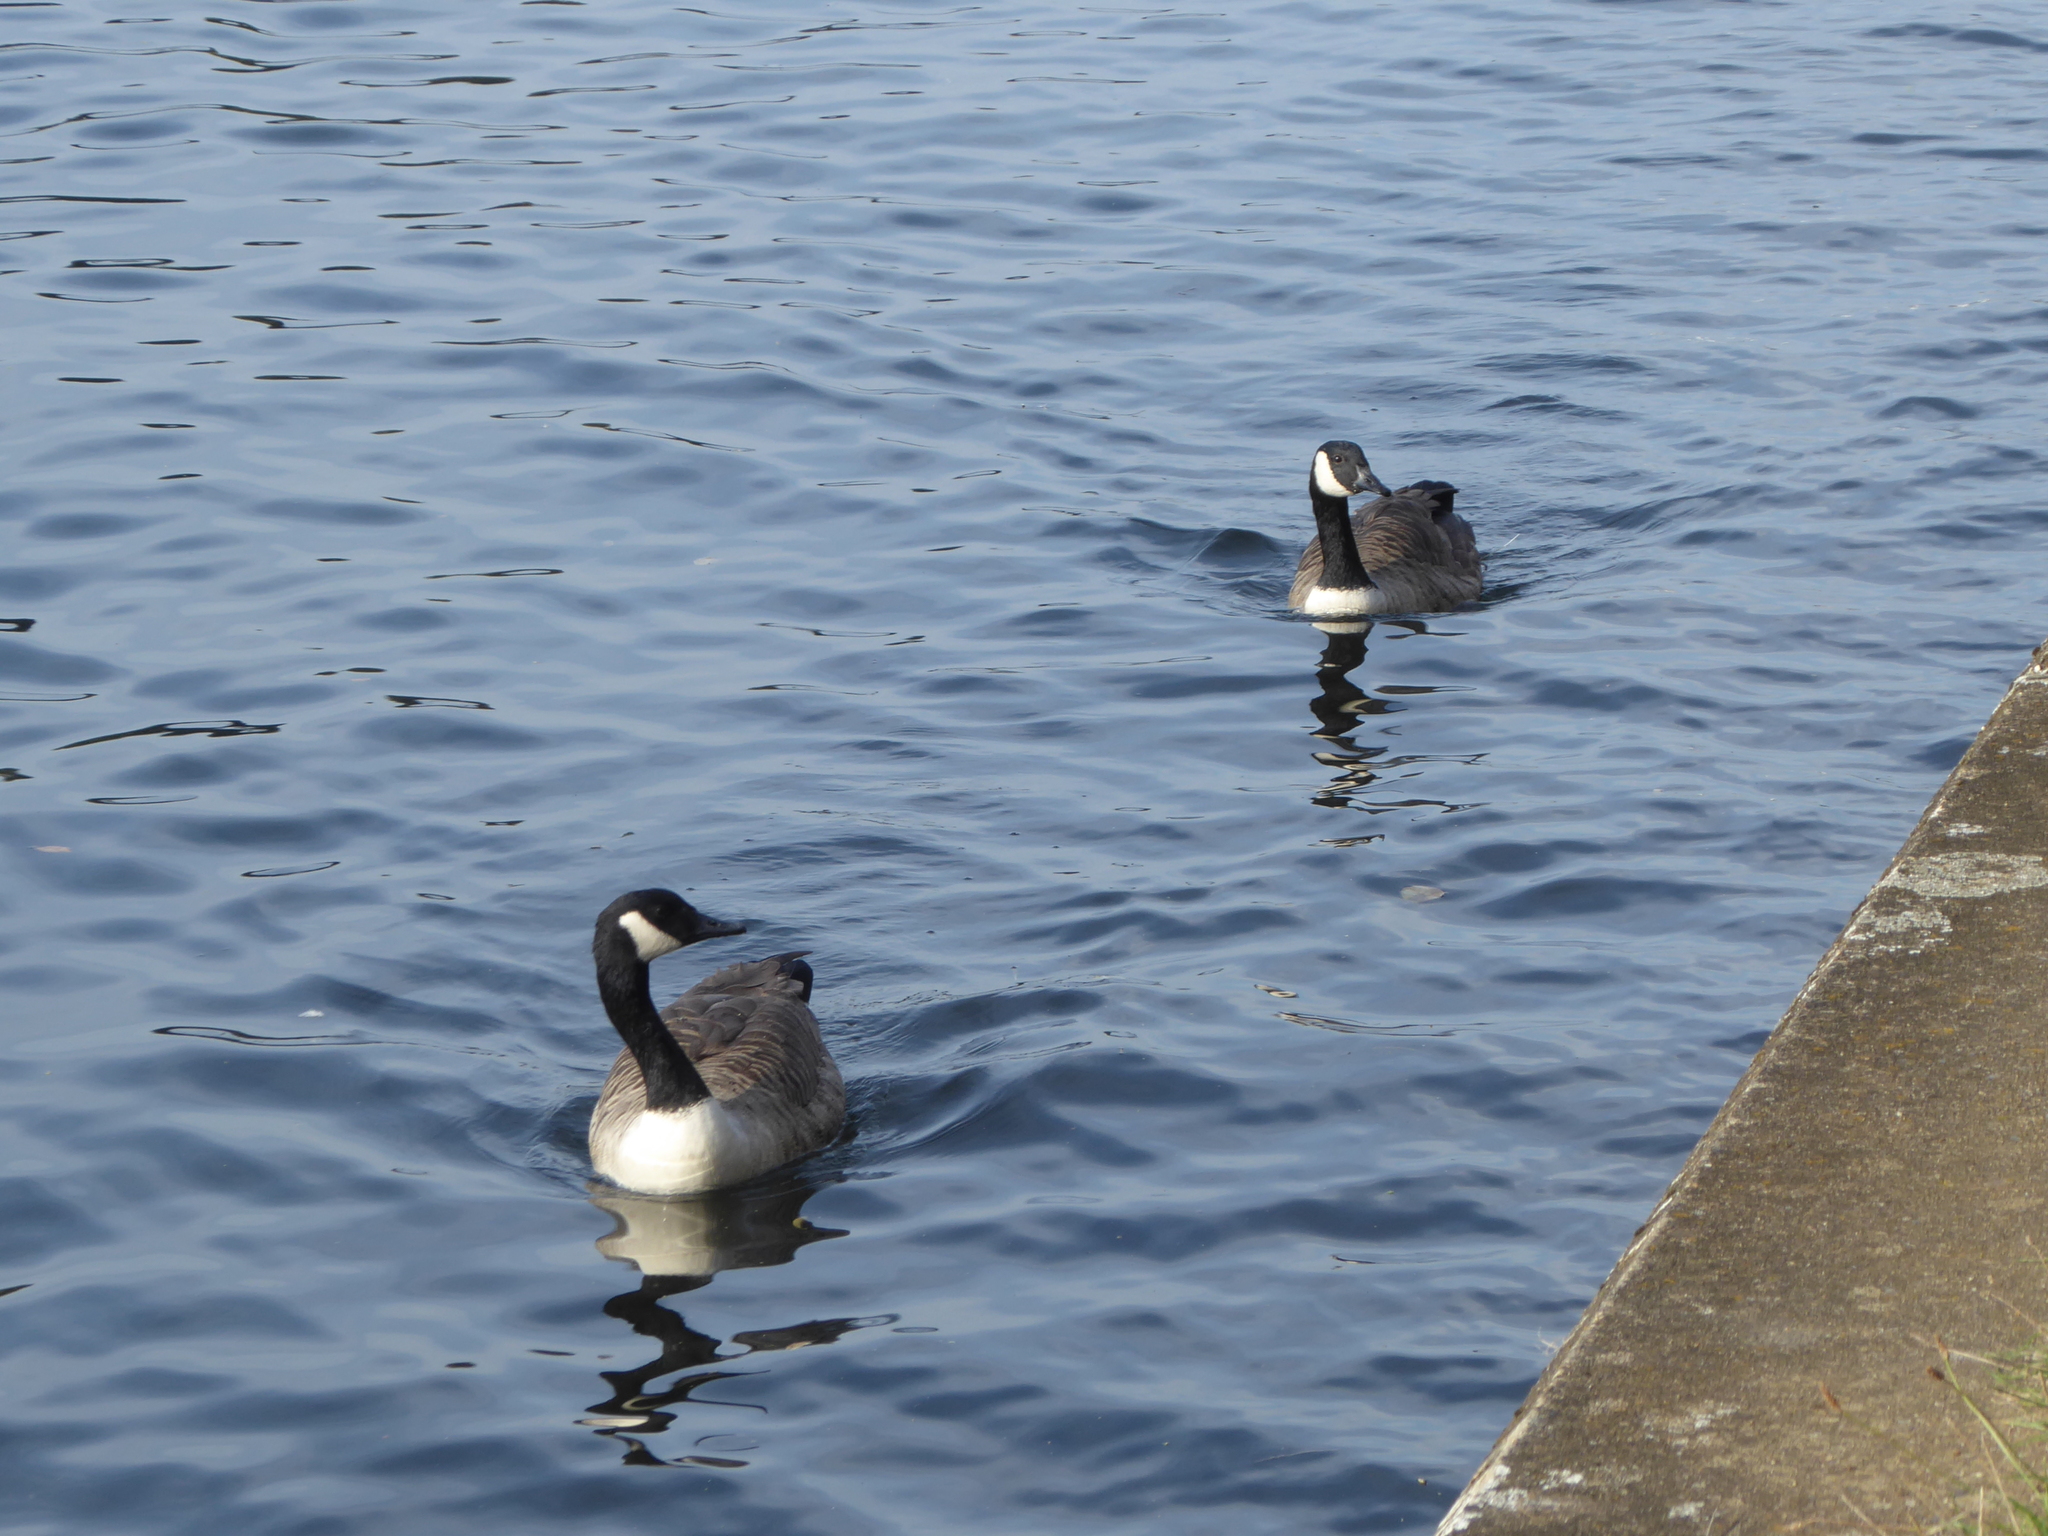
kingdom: Animalia
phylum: Chordata
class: Aves
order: Anseriformes
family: Anatidae
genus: Branta
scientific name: Branta canadensis
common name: Canada goose
